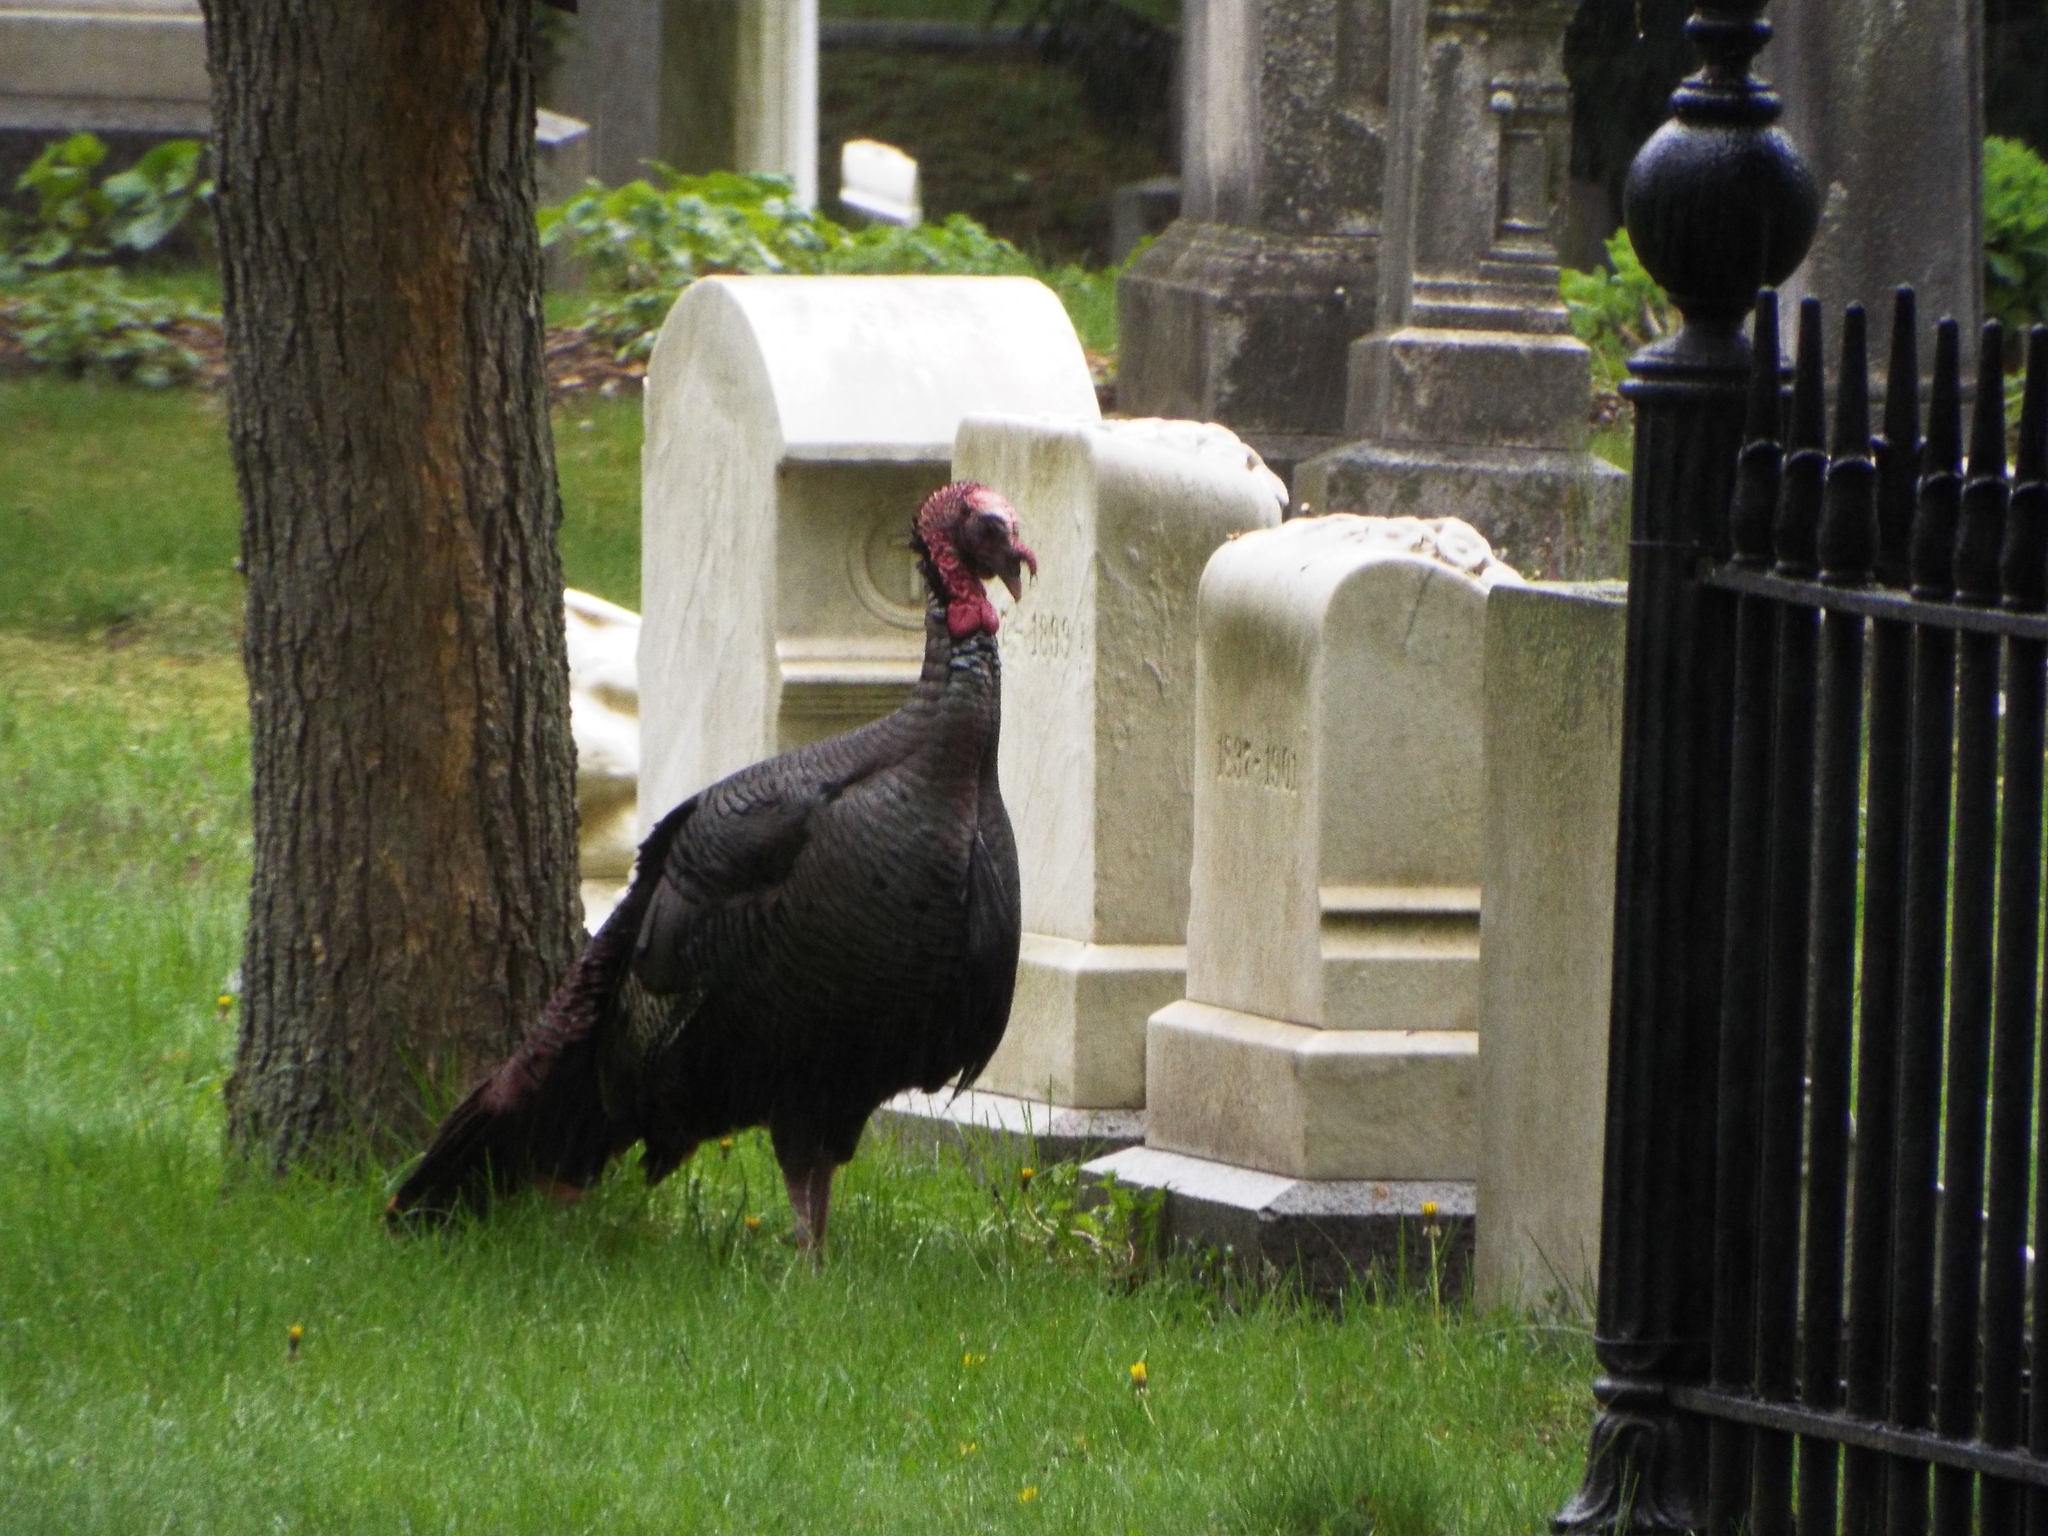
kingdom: Animalia
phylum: Chordata
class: Aves
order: Galliformes
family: Phasianidae
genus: Meleagris
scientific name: Meleagris gallopavo
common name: Wild turkey
